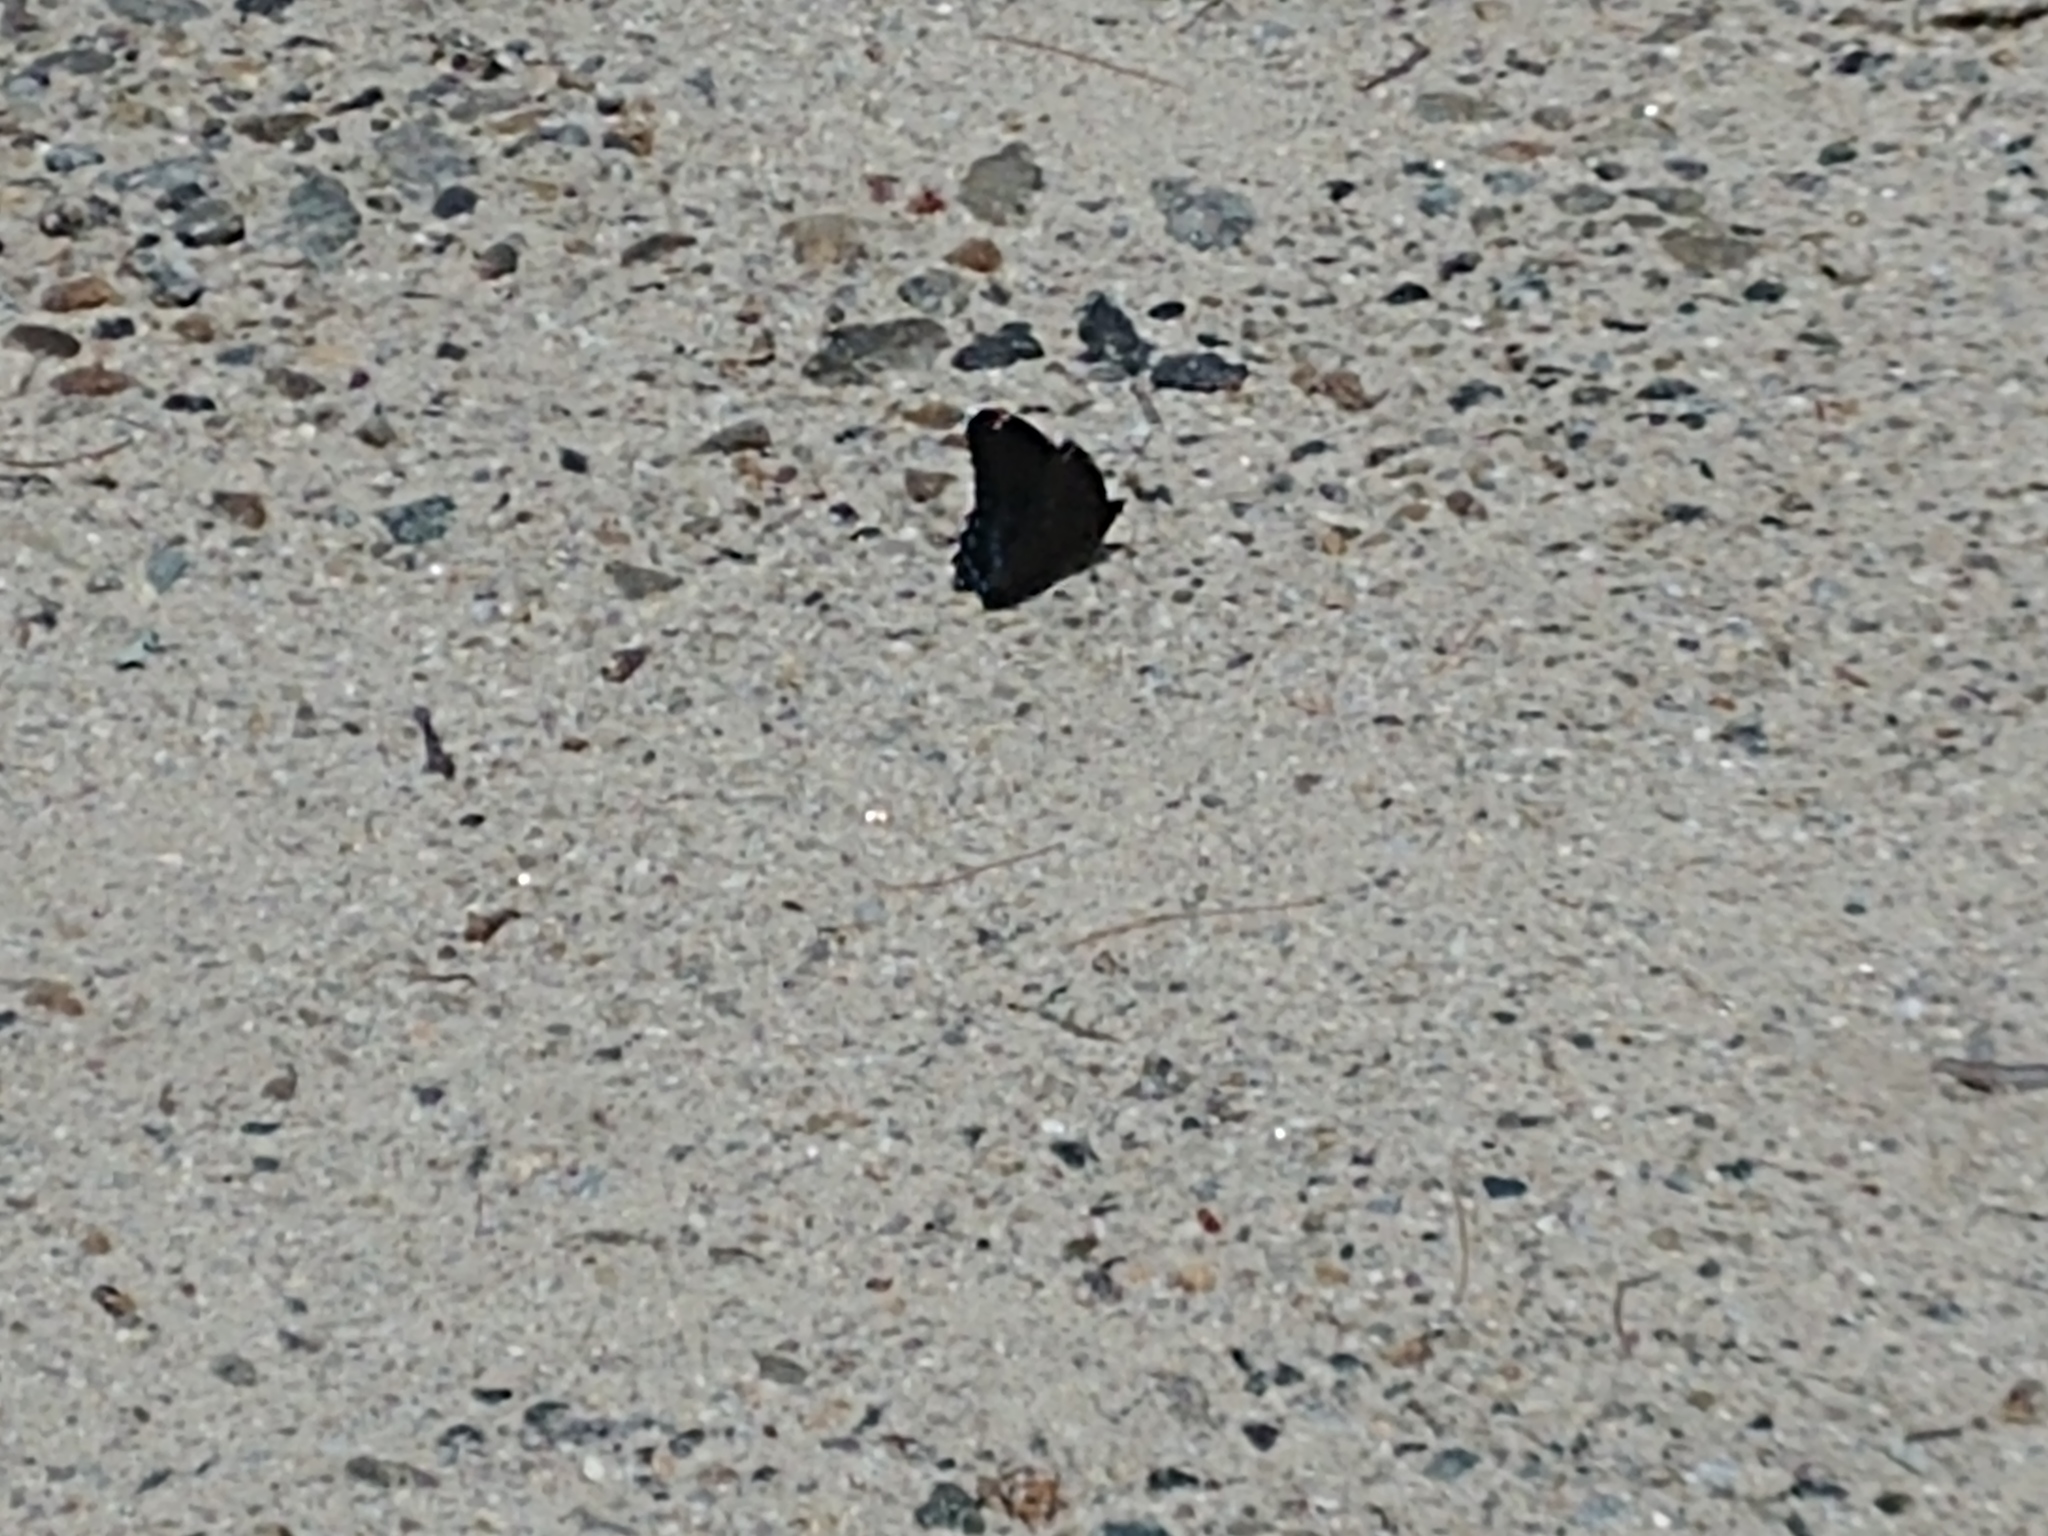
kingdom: Animalia
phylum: Arthropoda
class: Insecta
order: Lepidoptera
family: Nymphalidae
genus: Limenitis
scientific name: Limenitis astyanax
